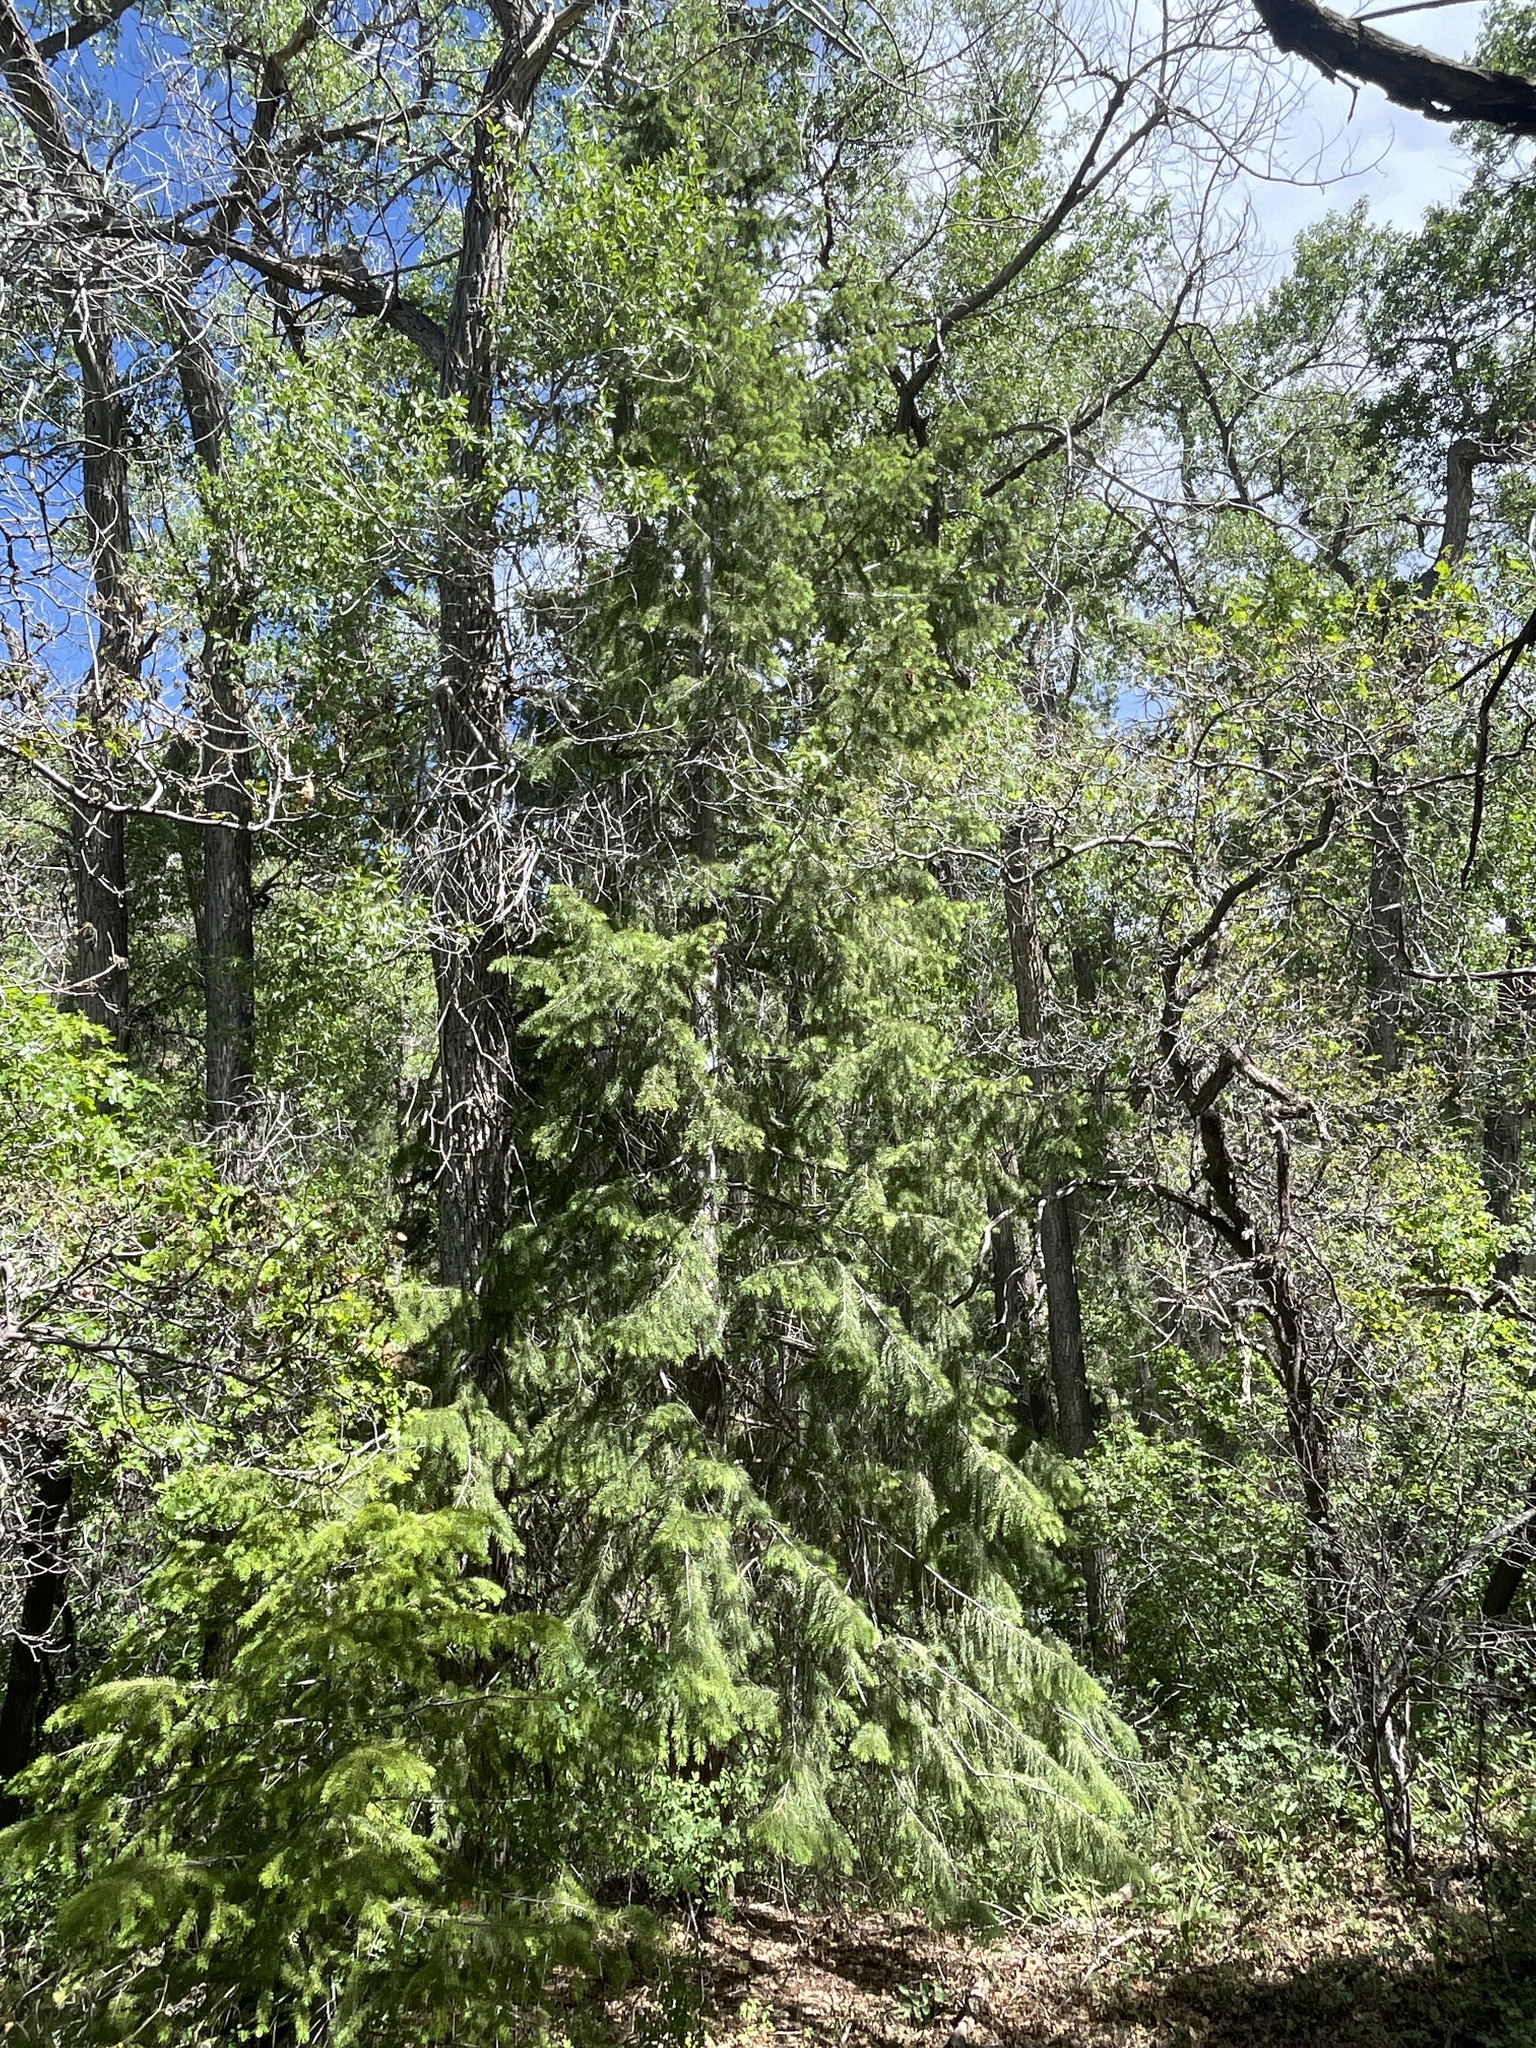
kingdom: Plantae
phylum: Tracheophyta
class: Pinopsida
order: Pinales
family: Pinaceae
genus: Pseudotsuga
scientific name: Pseudotsuga menziesii
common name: Douglas fir
